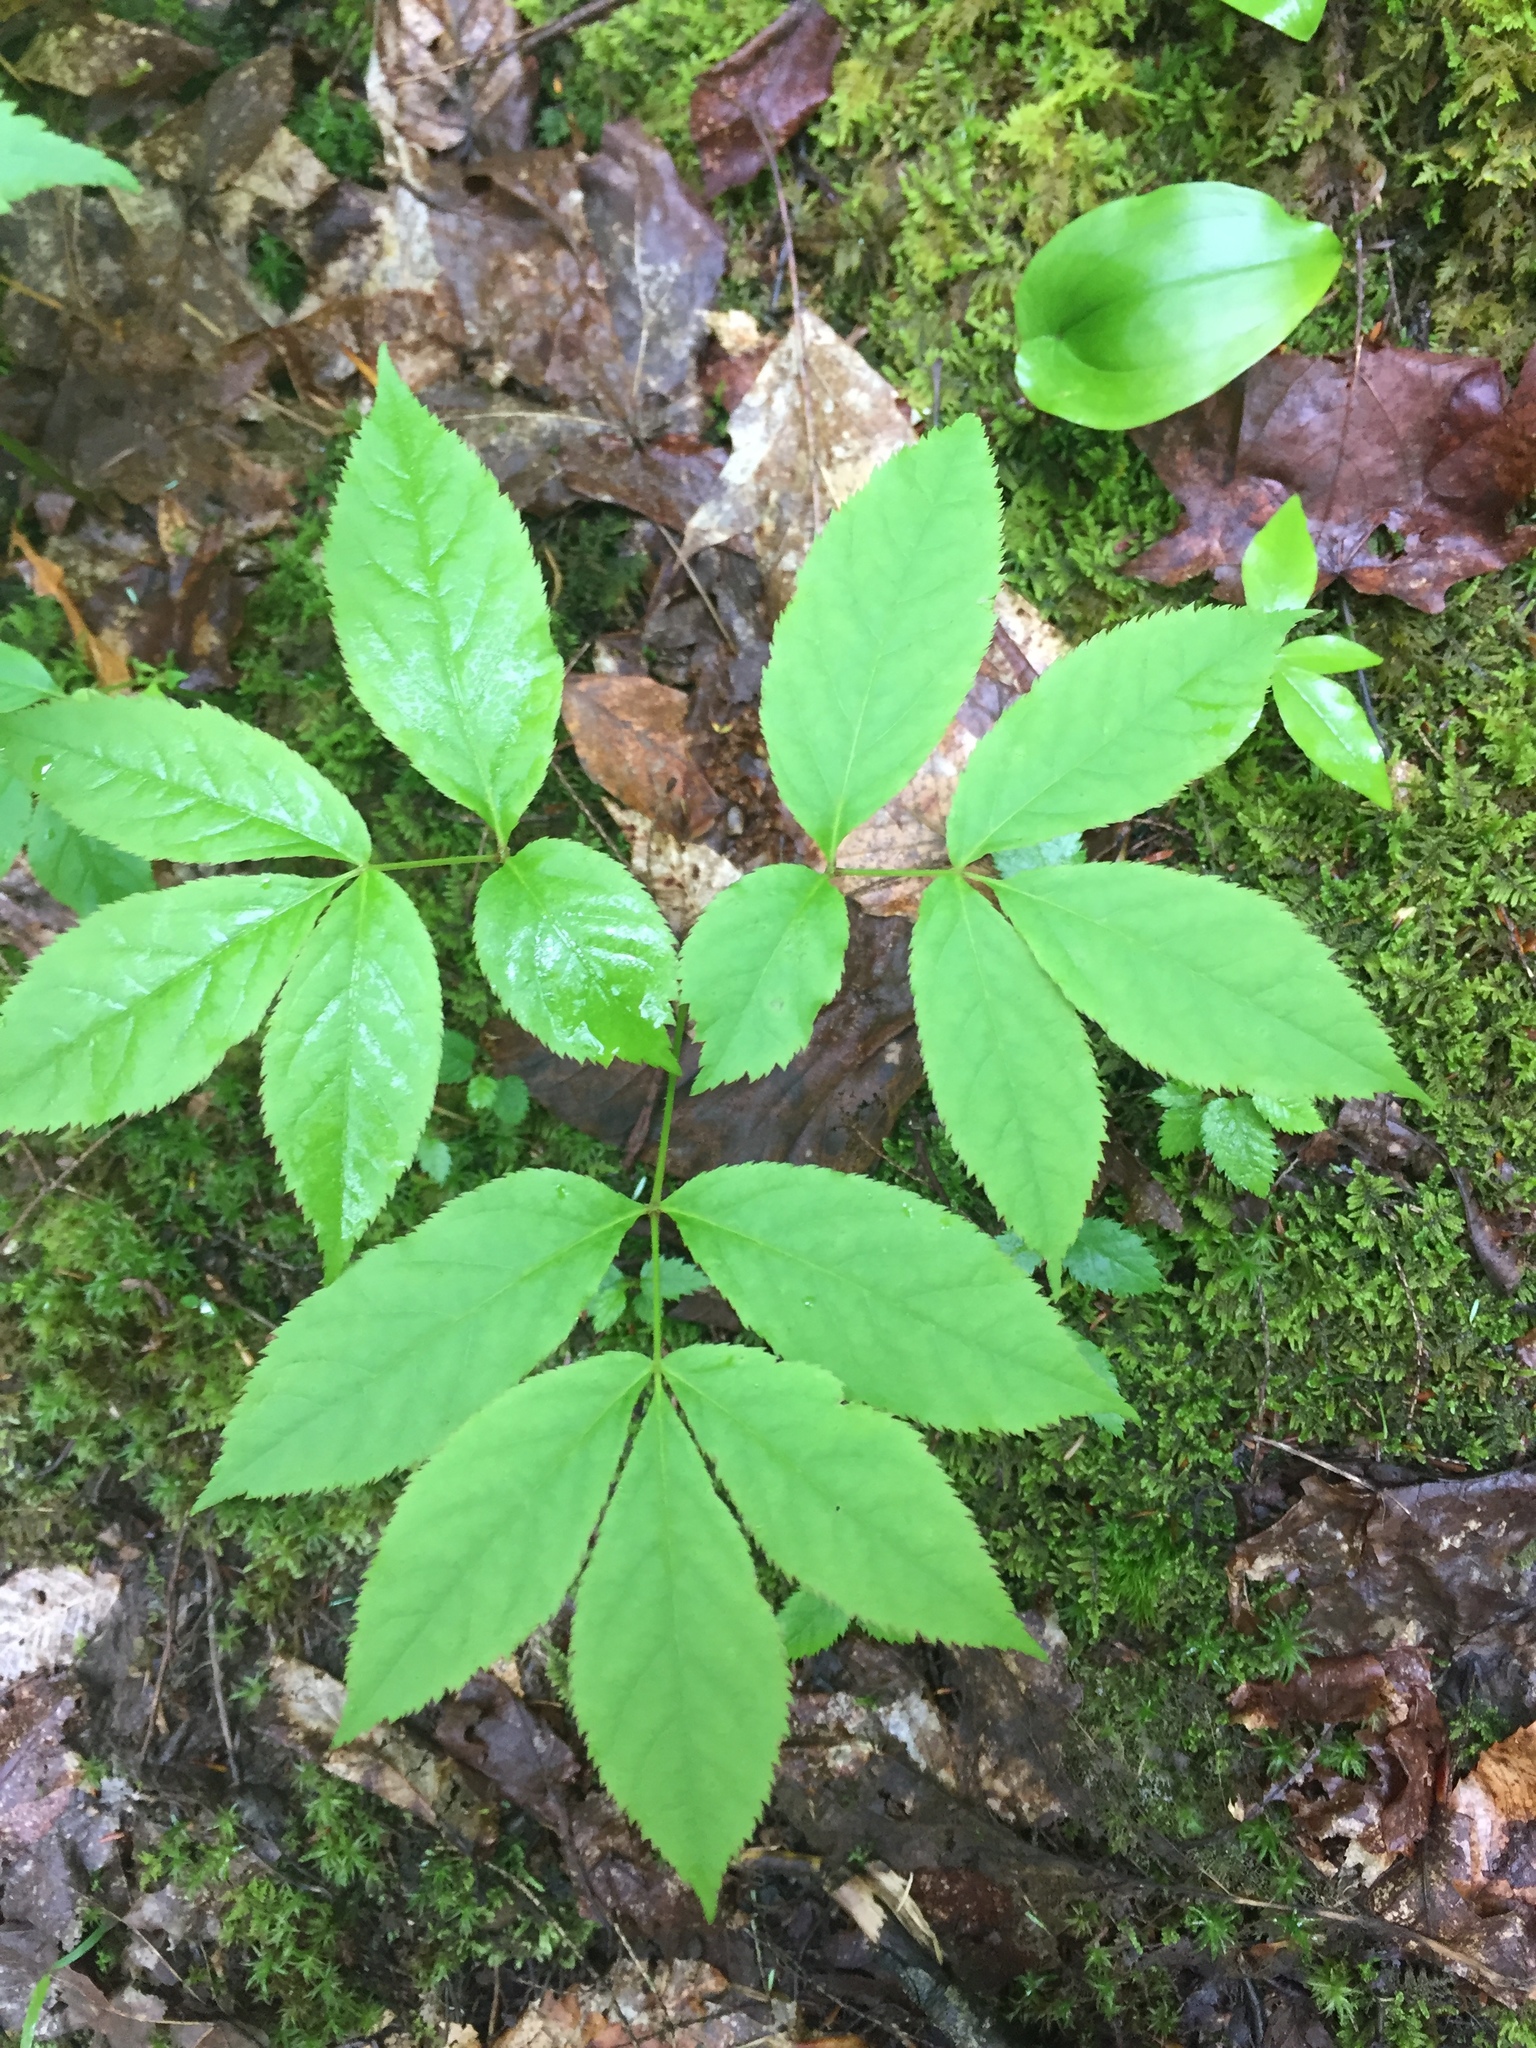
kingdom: Plantae
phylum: Tracheophyta
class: Magnoliopsida
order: Apiales
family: Araliaceae
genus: Aralia
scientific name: Aralia nudicaulis
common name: Wild sarsaparilla
